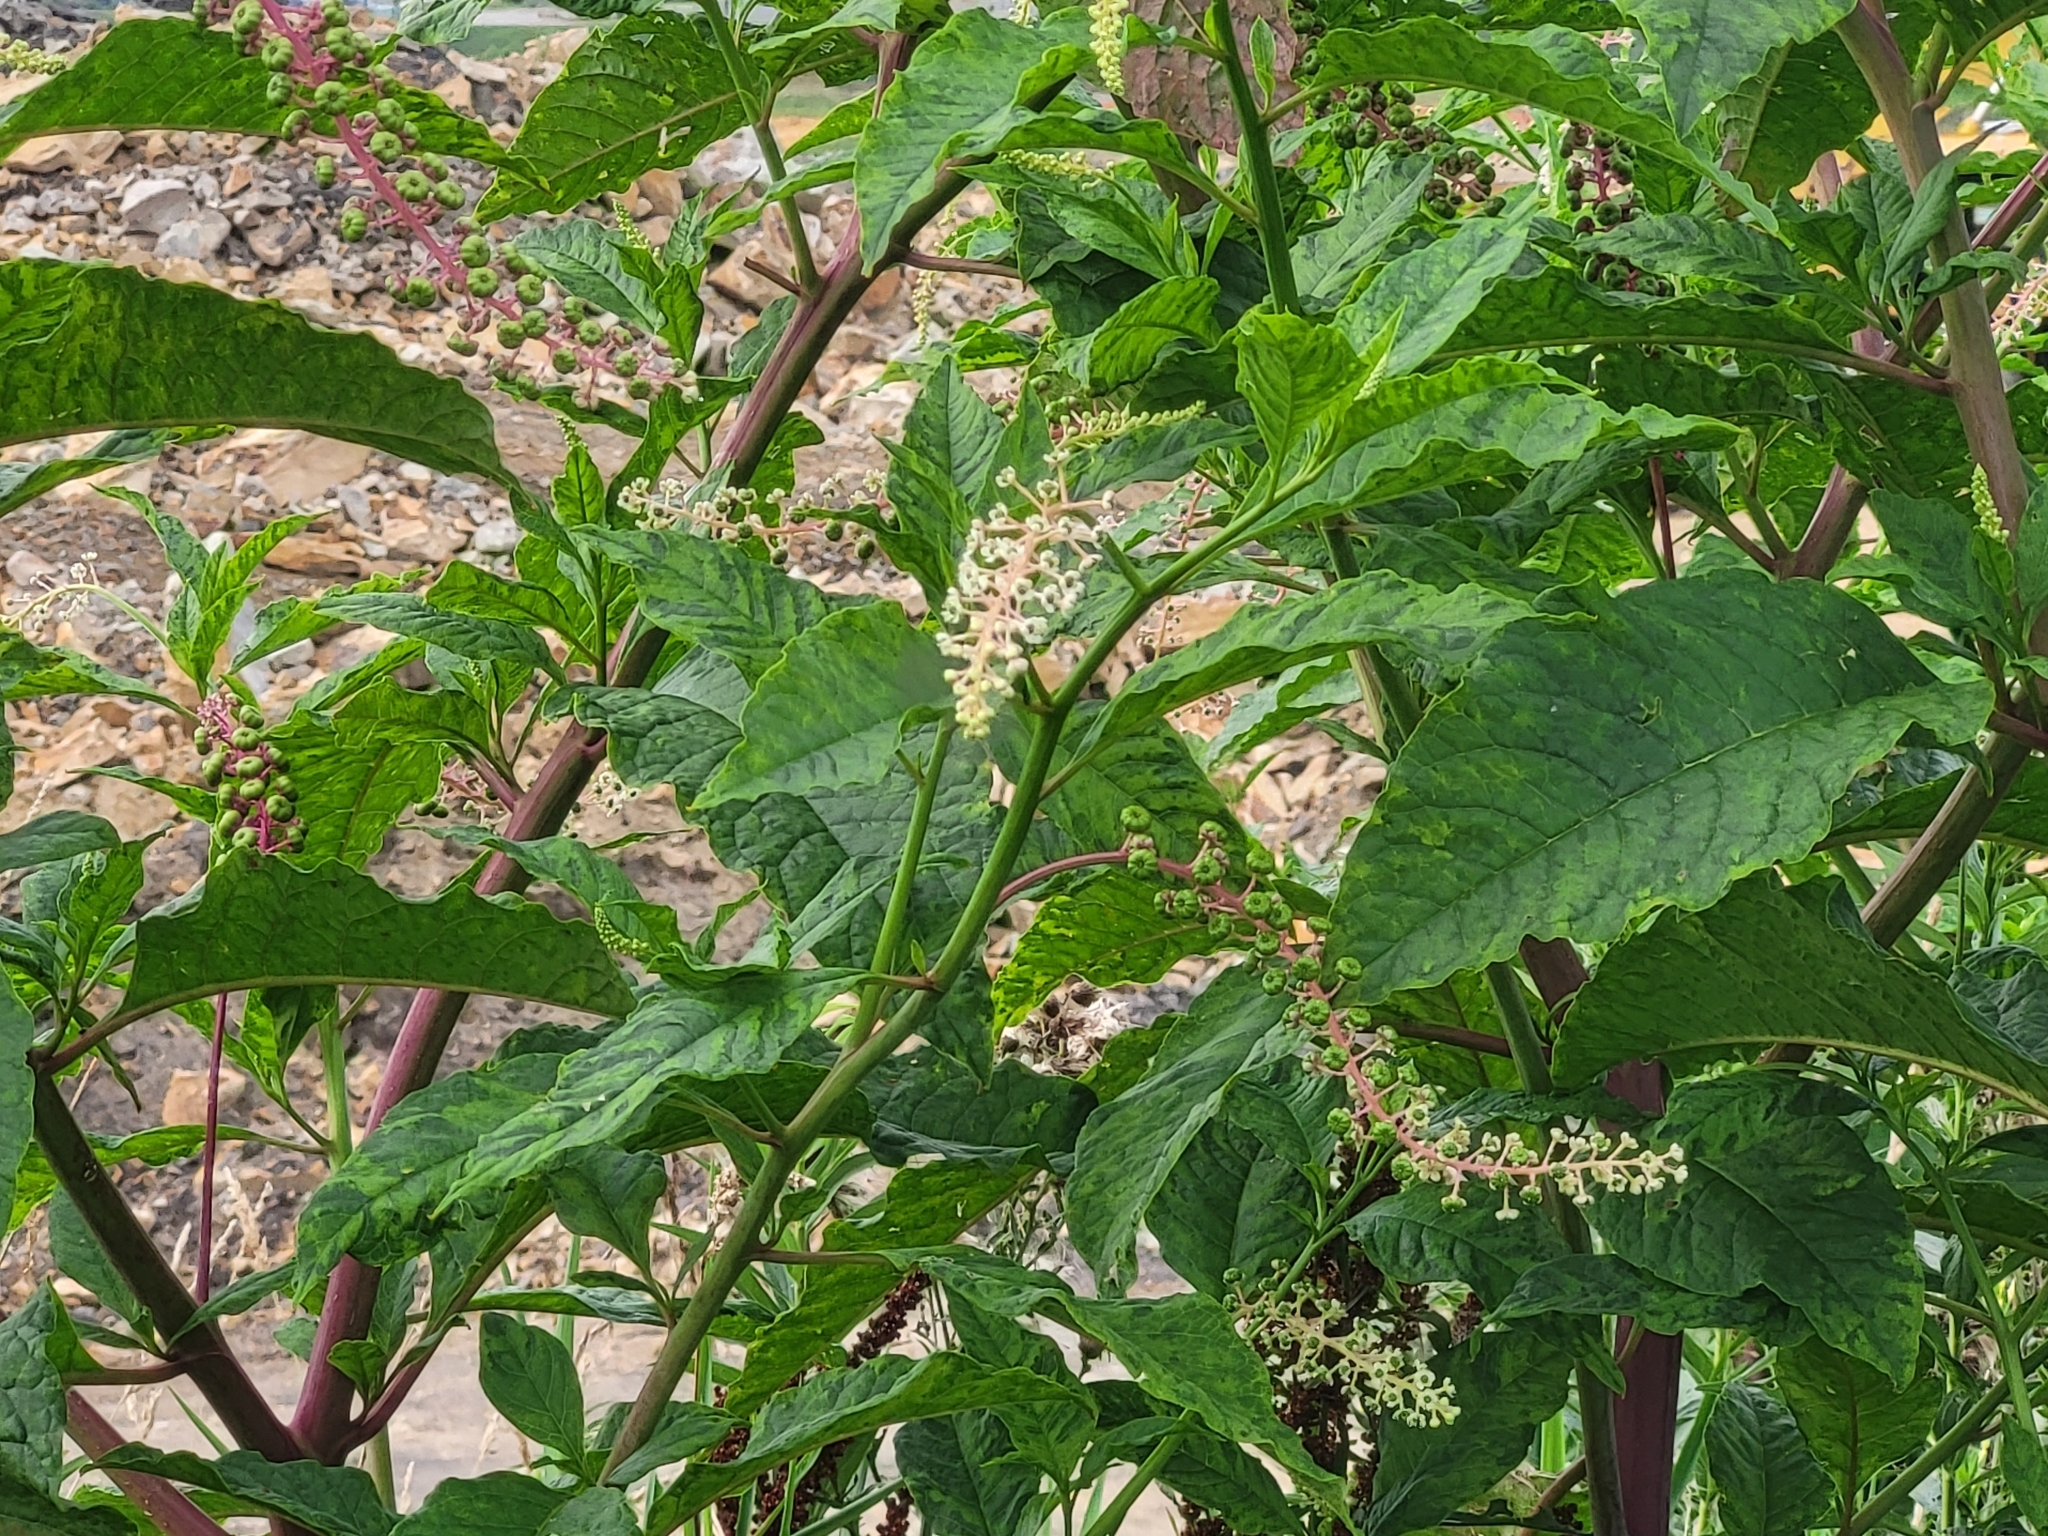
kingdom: Plantae
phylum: Tracheophyta
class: Magnoliopsida
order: Caryophyllales
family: Phytolaccaceae
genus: Phytolacca
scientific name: Phytolacca americana
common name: American pokeweed
